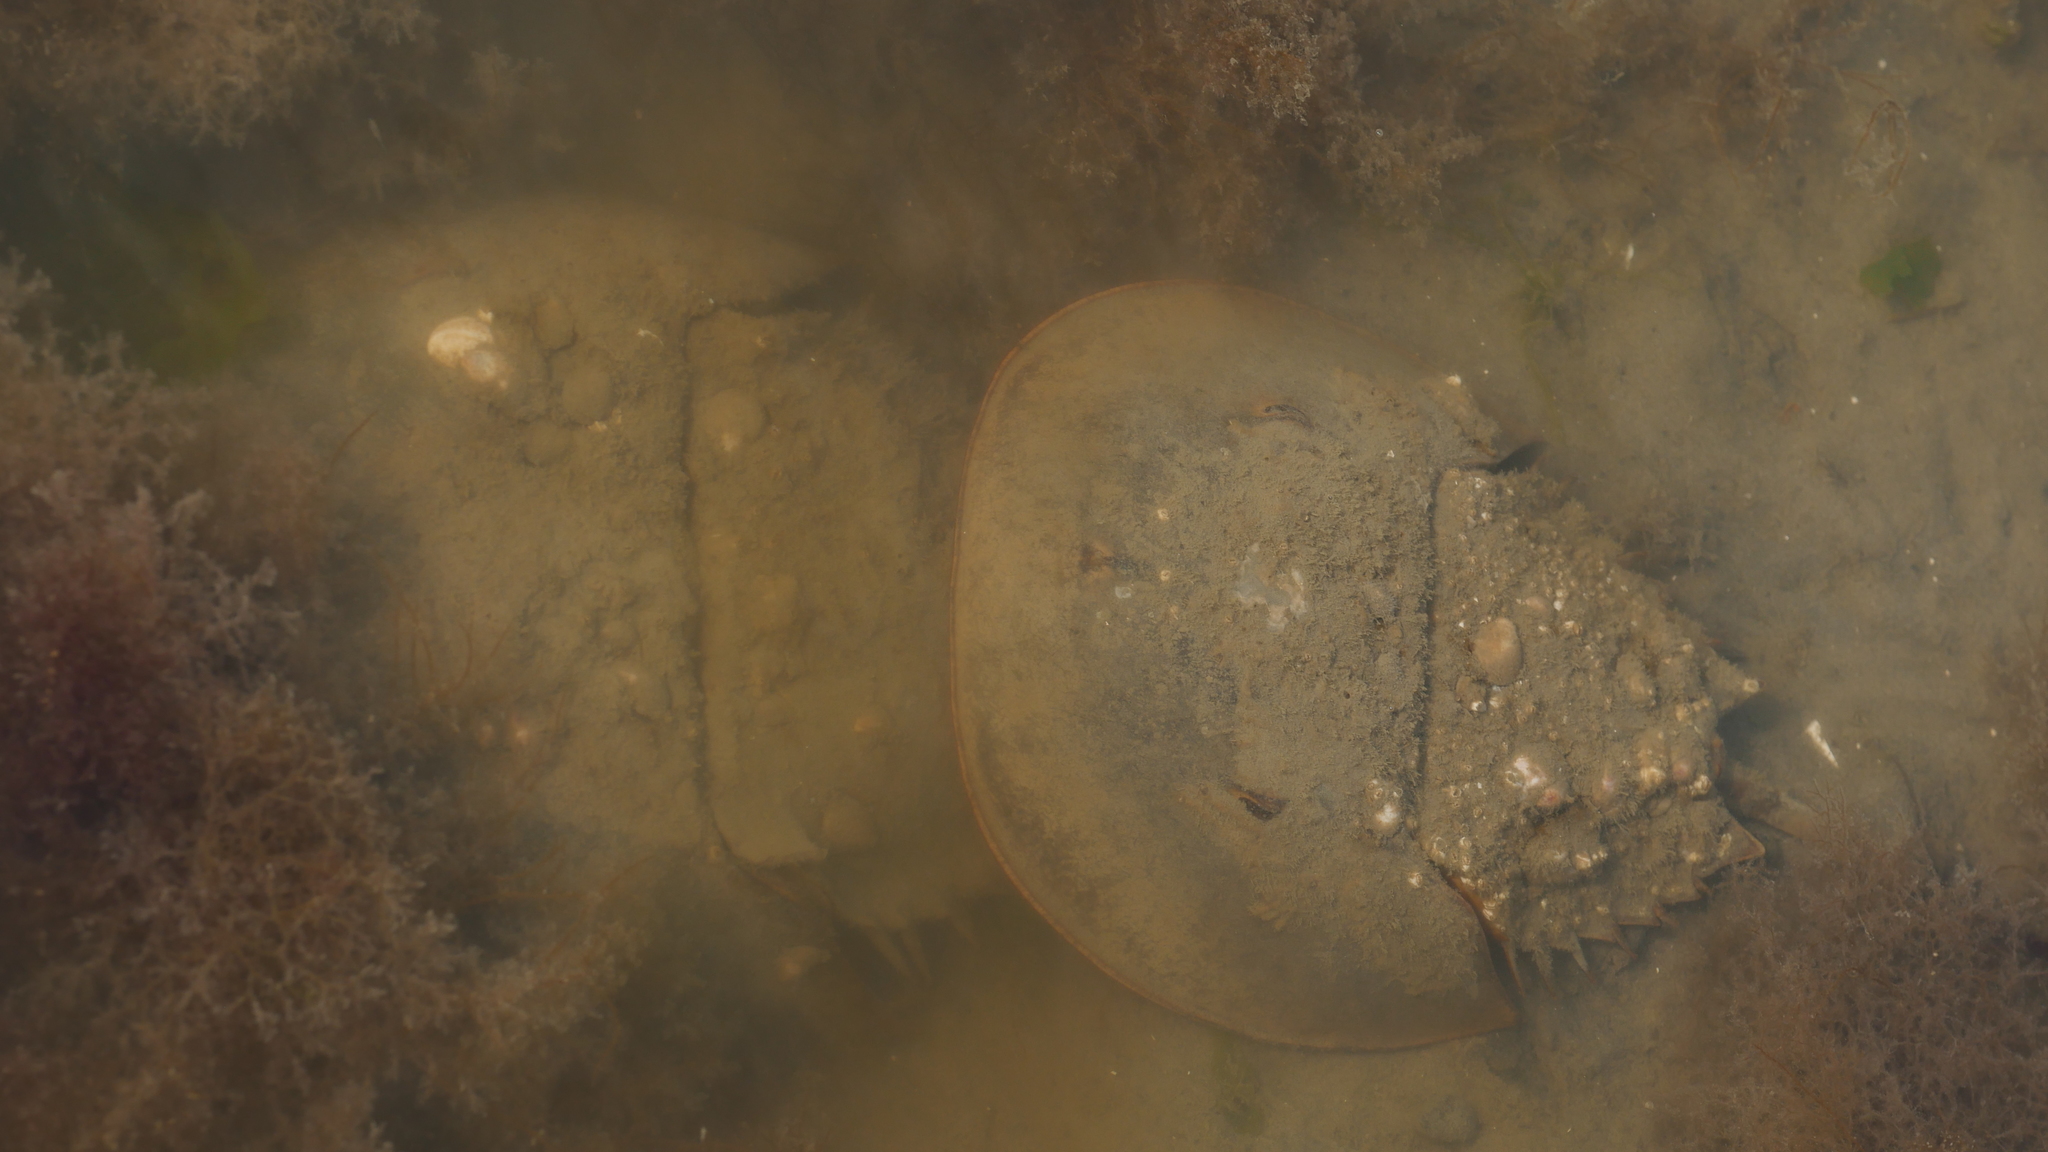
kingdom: Animalia
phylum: Arthropoda
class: Merostomata
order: Xiphosurida
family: Limulidae
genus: Limulus
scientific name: Limulus polyphemus
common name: Horseshoe crab
